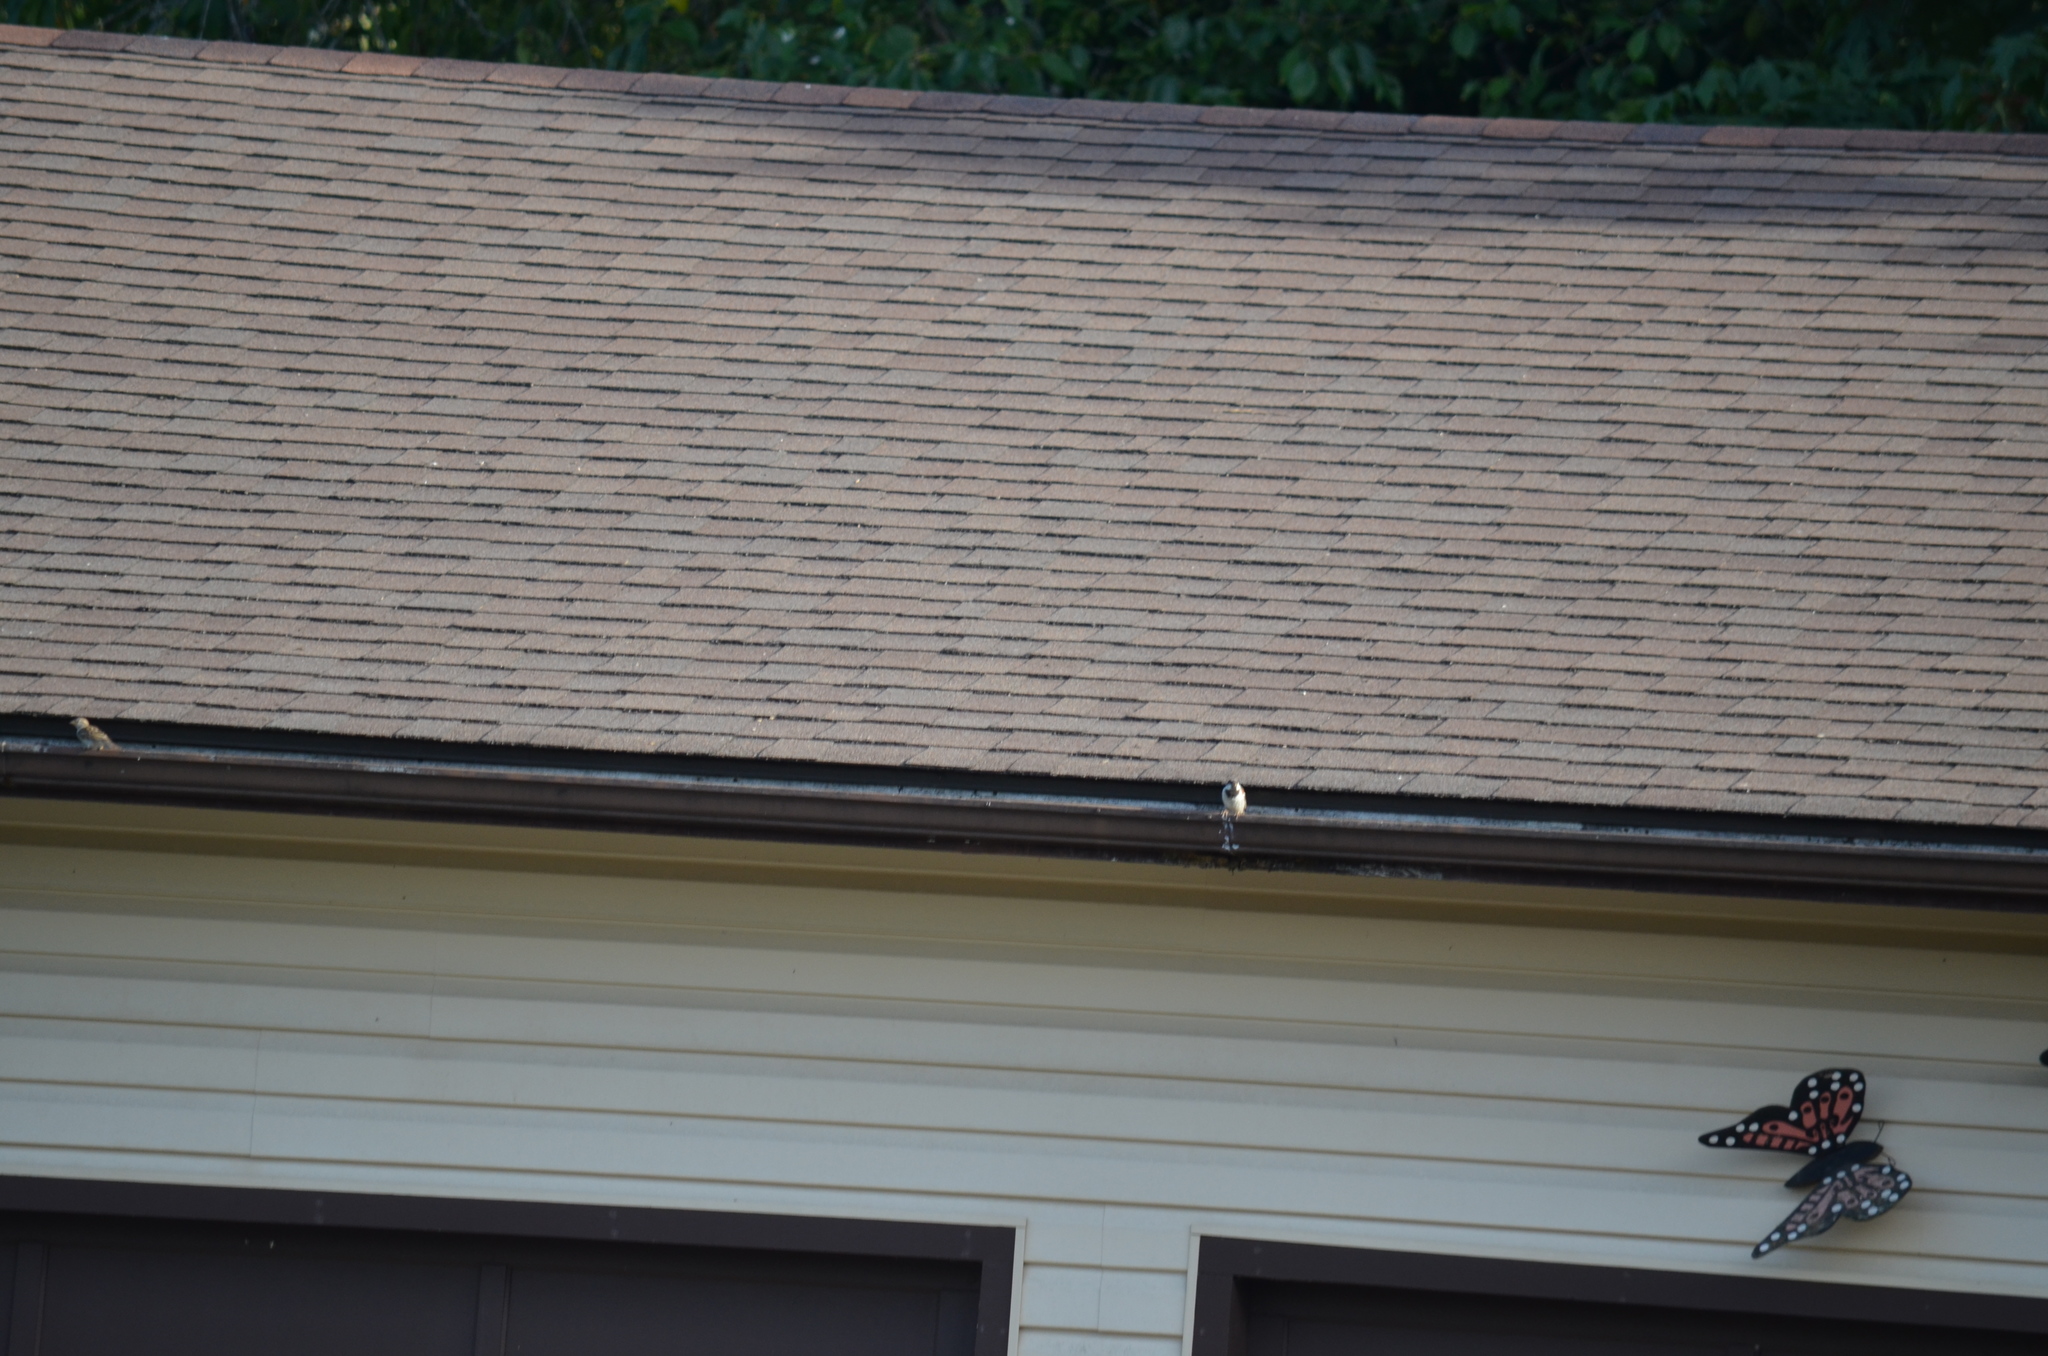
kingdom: Animalia
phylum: Chordata
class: Aves
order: Passeriformes
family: Passeridae
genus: Passer
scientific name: Passer domesticus
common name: House sparrow
